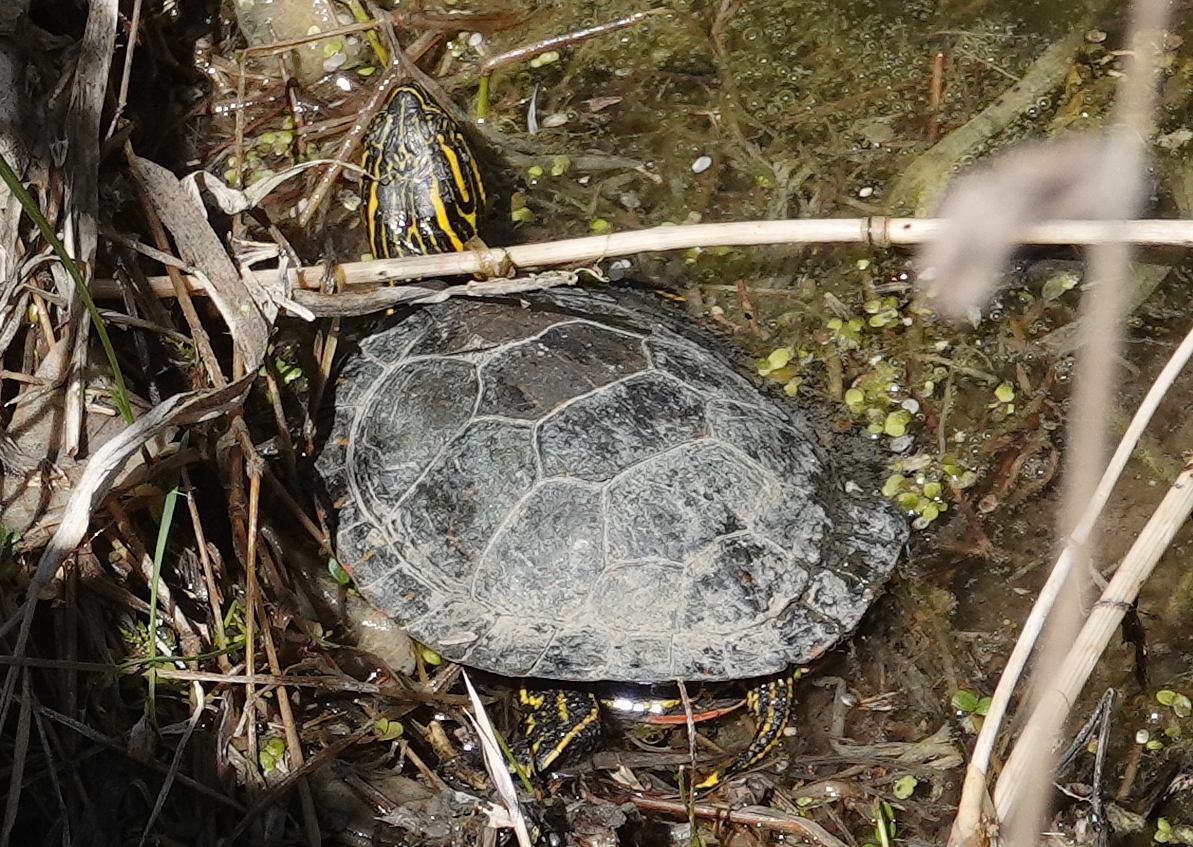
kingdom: Animalia
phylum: Chordata
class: Testudines
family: Emydidae
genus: Chrysemys
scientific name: Chrysemys picta
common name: Painted turtle
